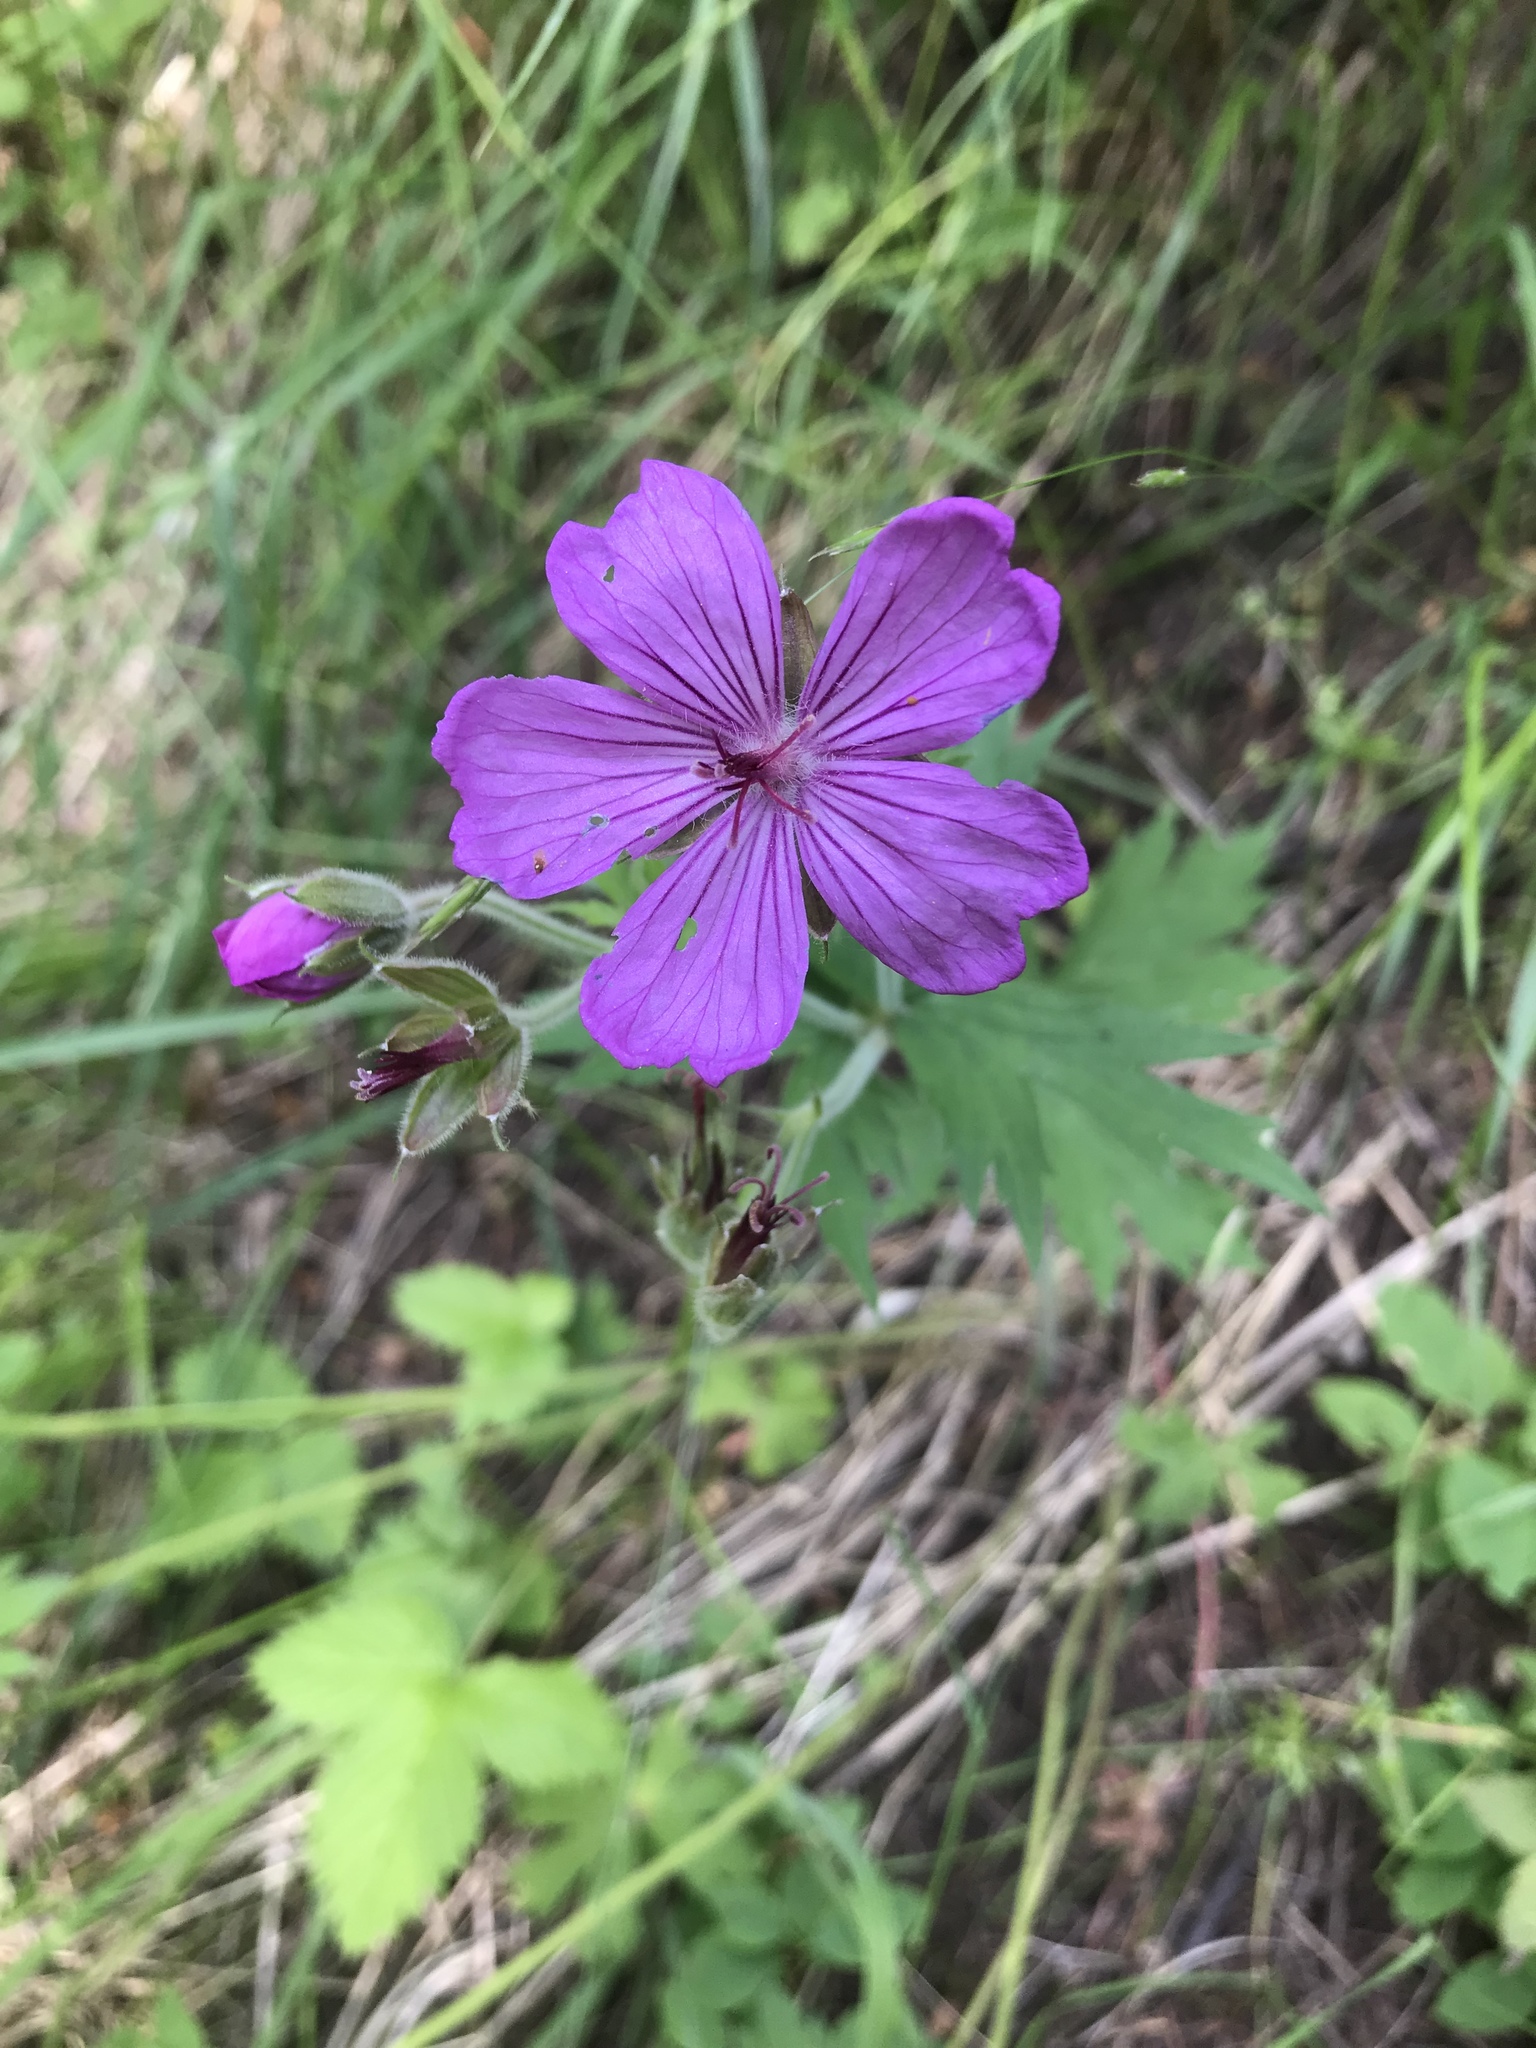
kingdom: Plantae
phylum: Tracheophyta
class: Magnoliopsida
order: Geraniales
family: Geraniaceae
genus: Geranium
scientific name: Geranium viscosissimum
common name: Purple geranium
